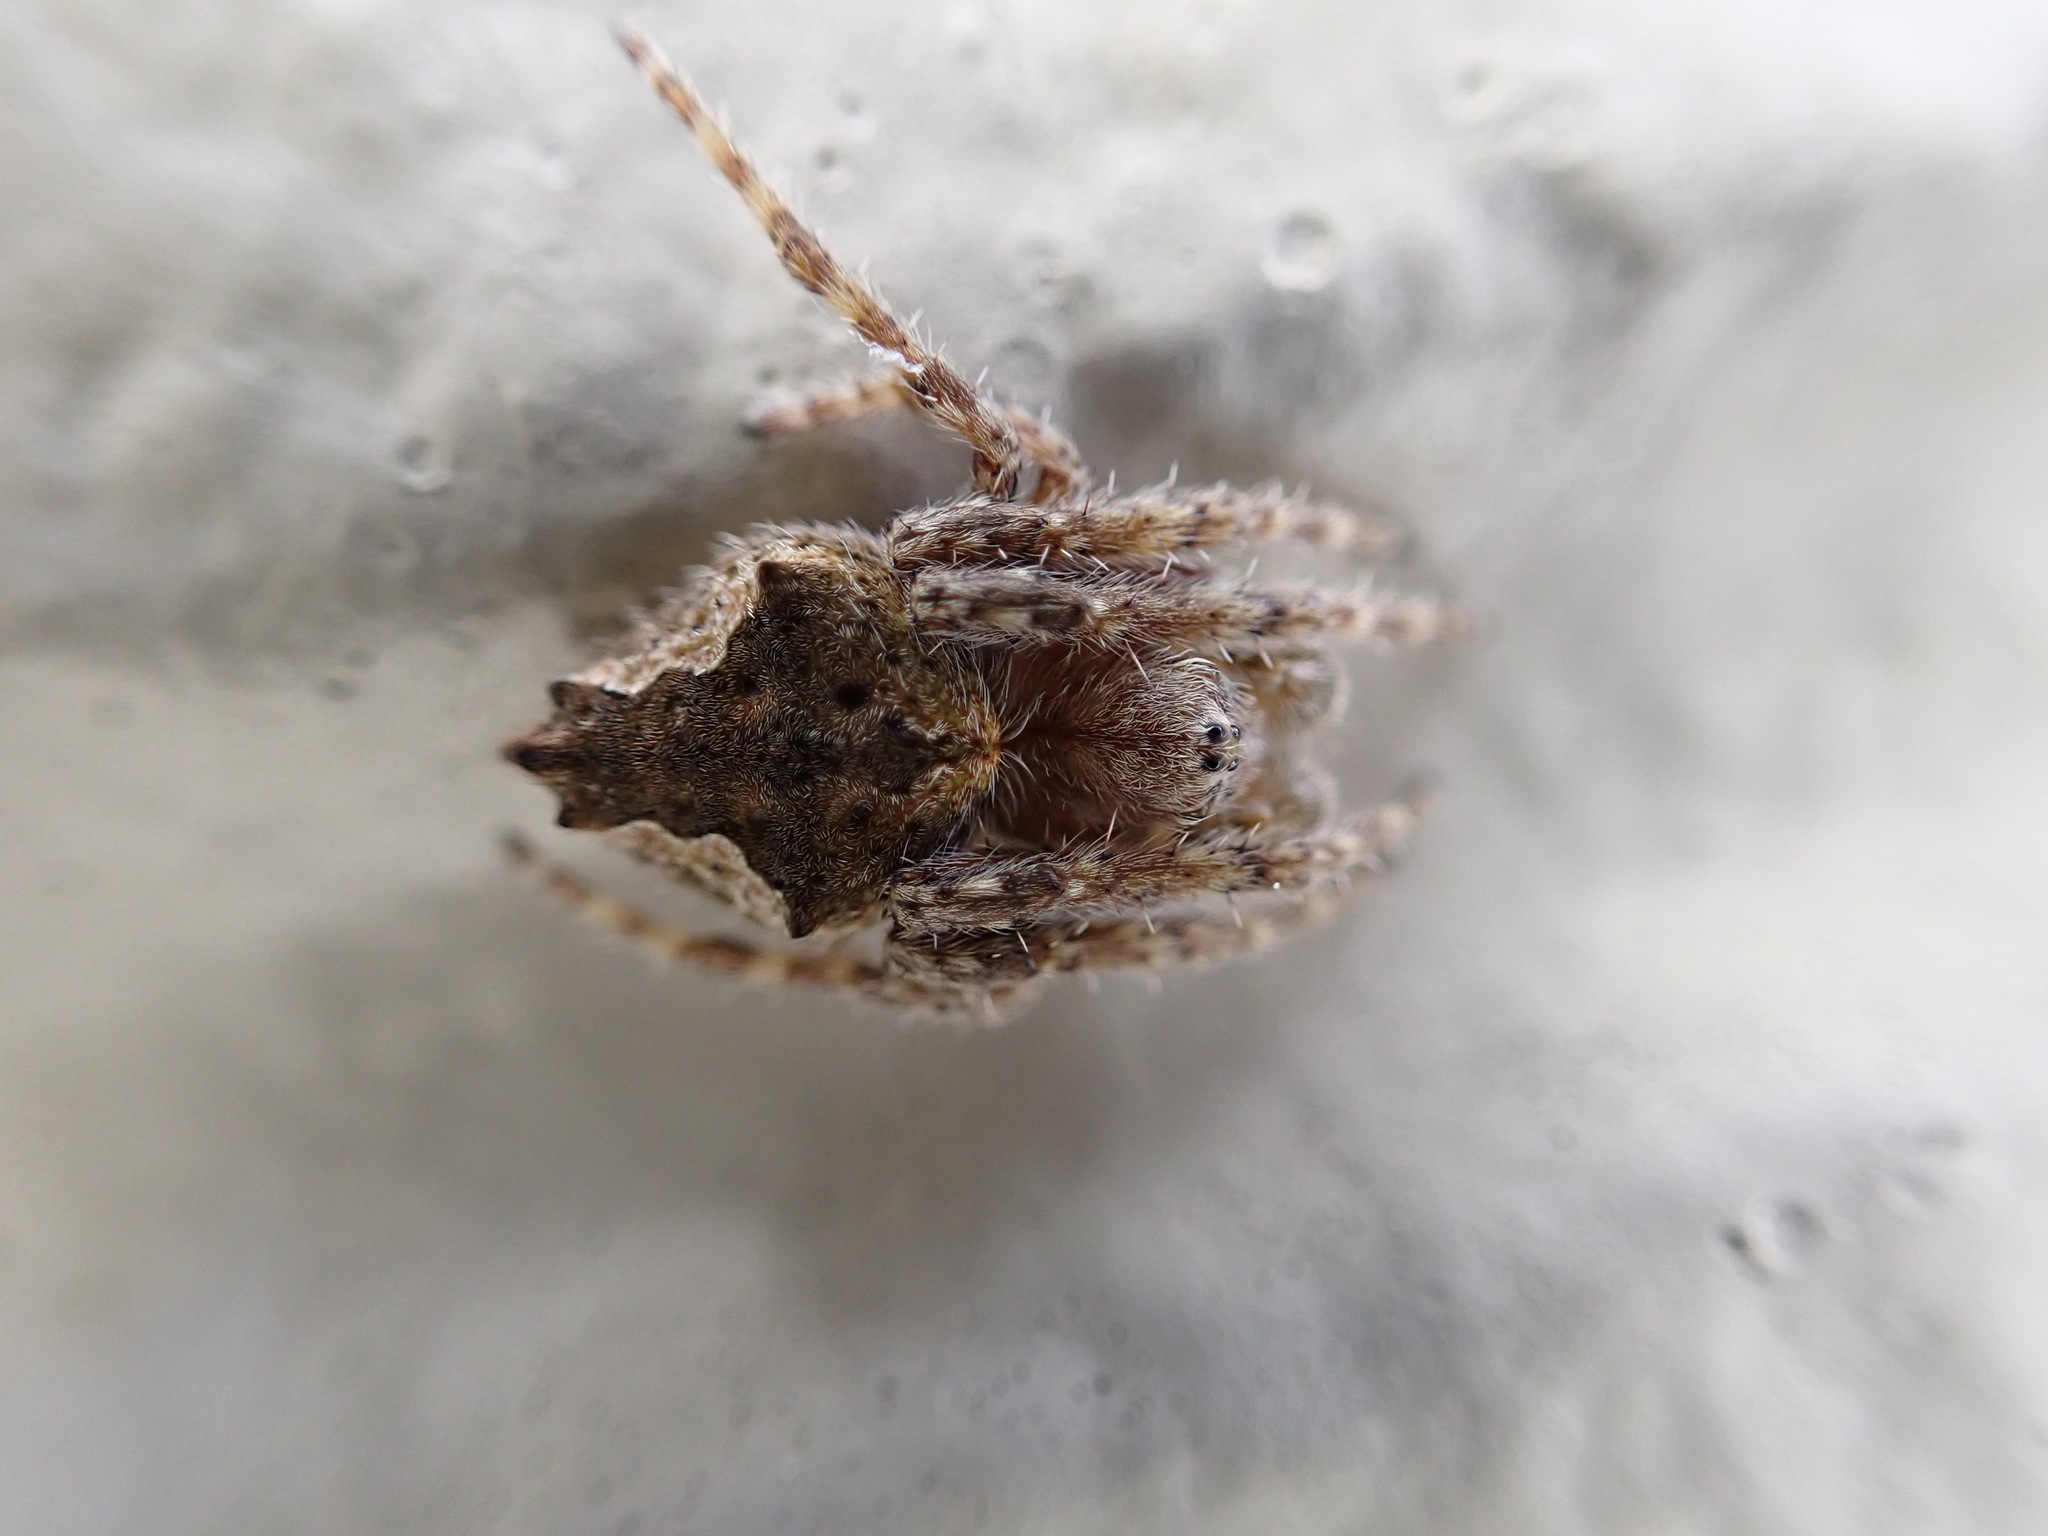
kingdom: Animalia
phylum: Arthropoda
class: Arachnida
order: Araneae
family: Araneidae
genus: Eriophora
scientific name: Eriophora pustulosa
